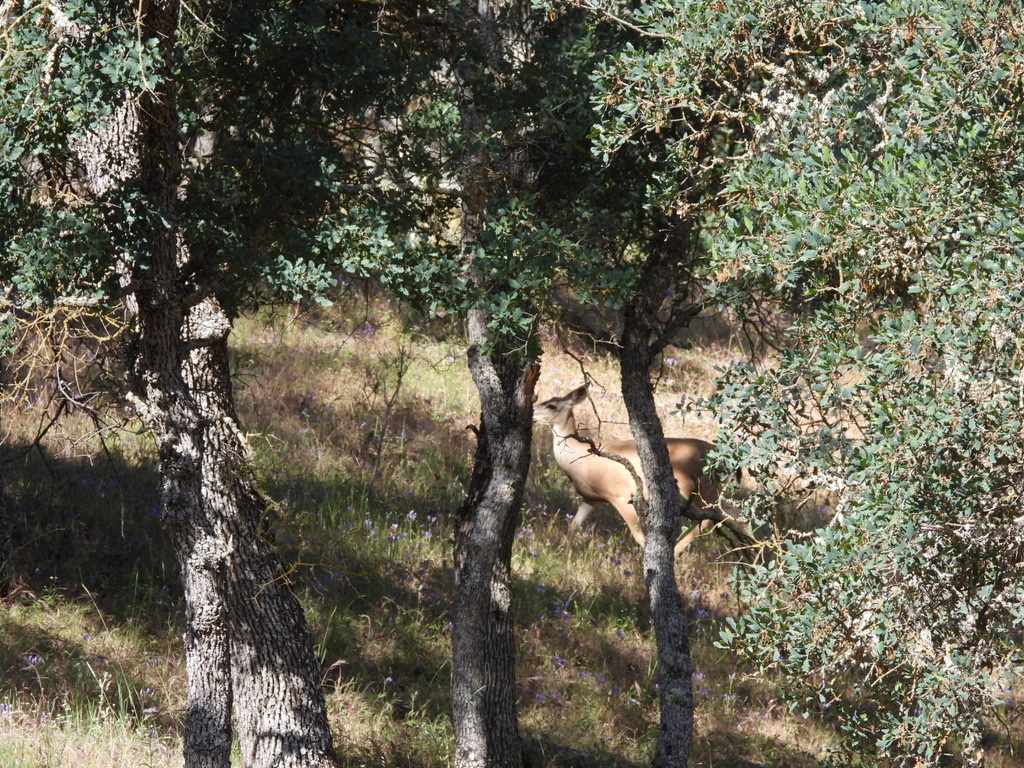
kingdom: Animalia
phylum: Chordata
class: Mammalia
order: Artiodactyla
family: Cervidae
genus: Odocoileus
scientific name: Odocoileus hemionus
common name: Mule deer
